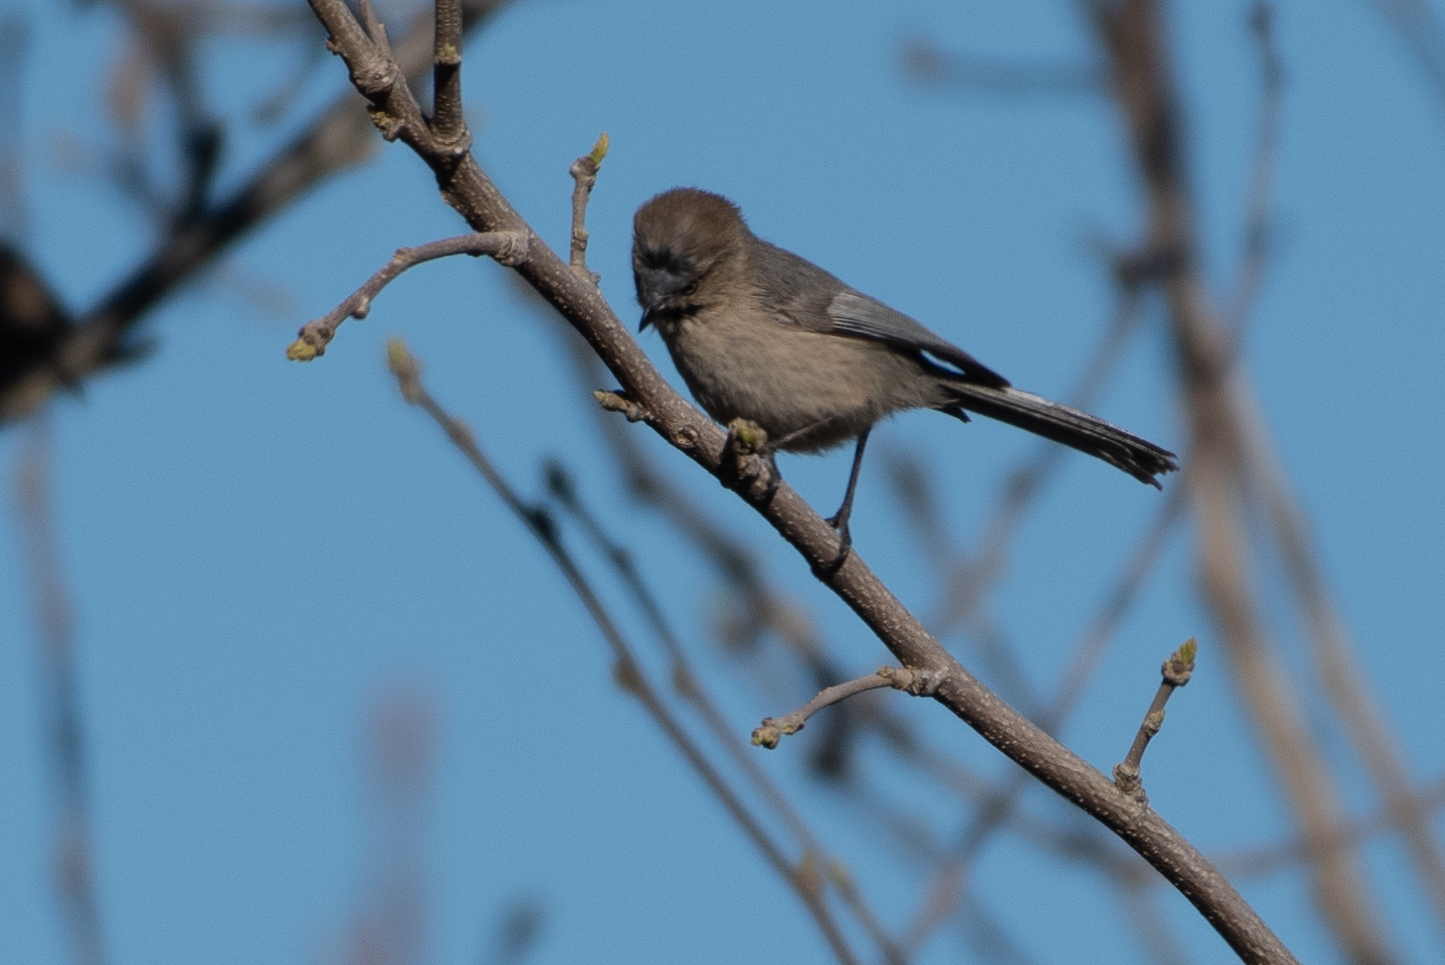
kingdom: Animalia
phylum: Chordata
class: Aves
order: Passeriformes
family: Aegithalidae
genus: Psaltriparus
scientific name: Psaltriparus minimus
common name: American bushtit
